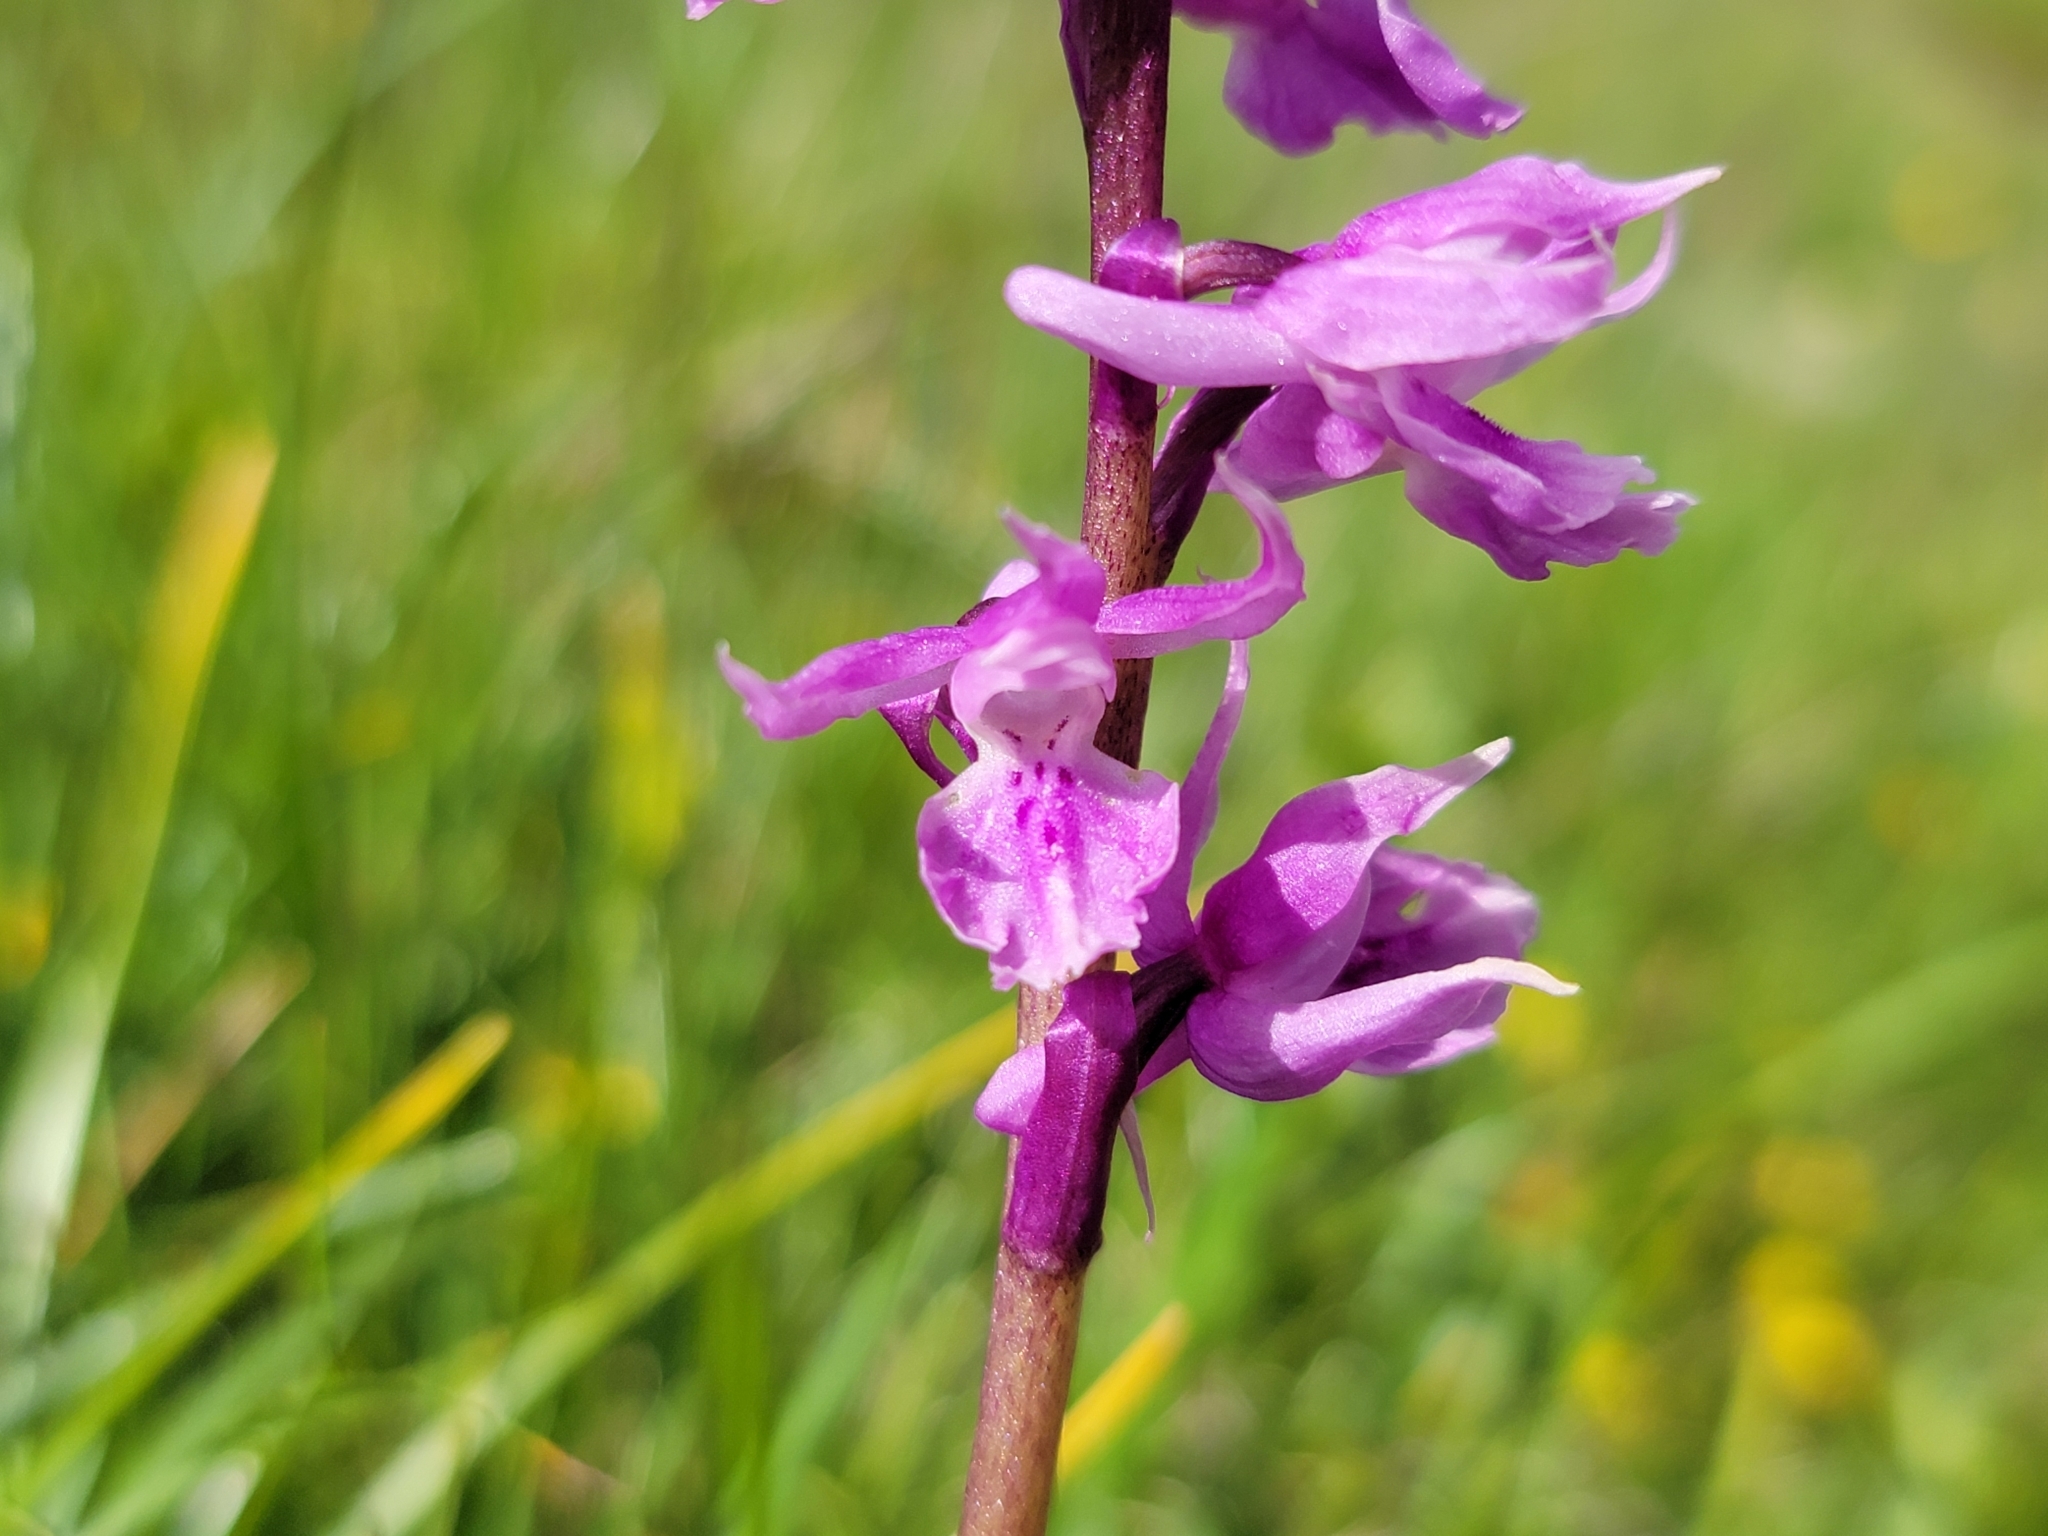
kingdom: Plantae
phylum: Tracheophyta
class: Liliopsida
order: Asparagales
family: Orchidaceae
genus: Orchis
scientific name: Orchis mascula
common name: Early-purple orchid
